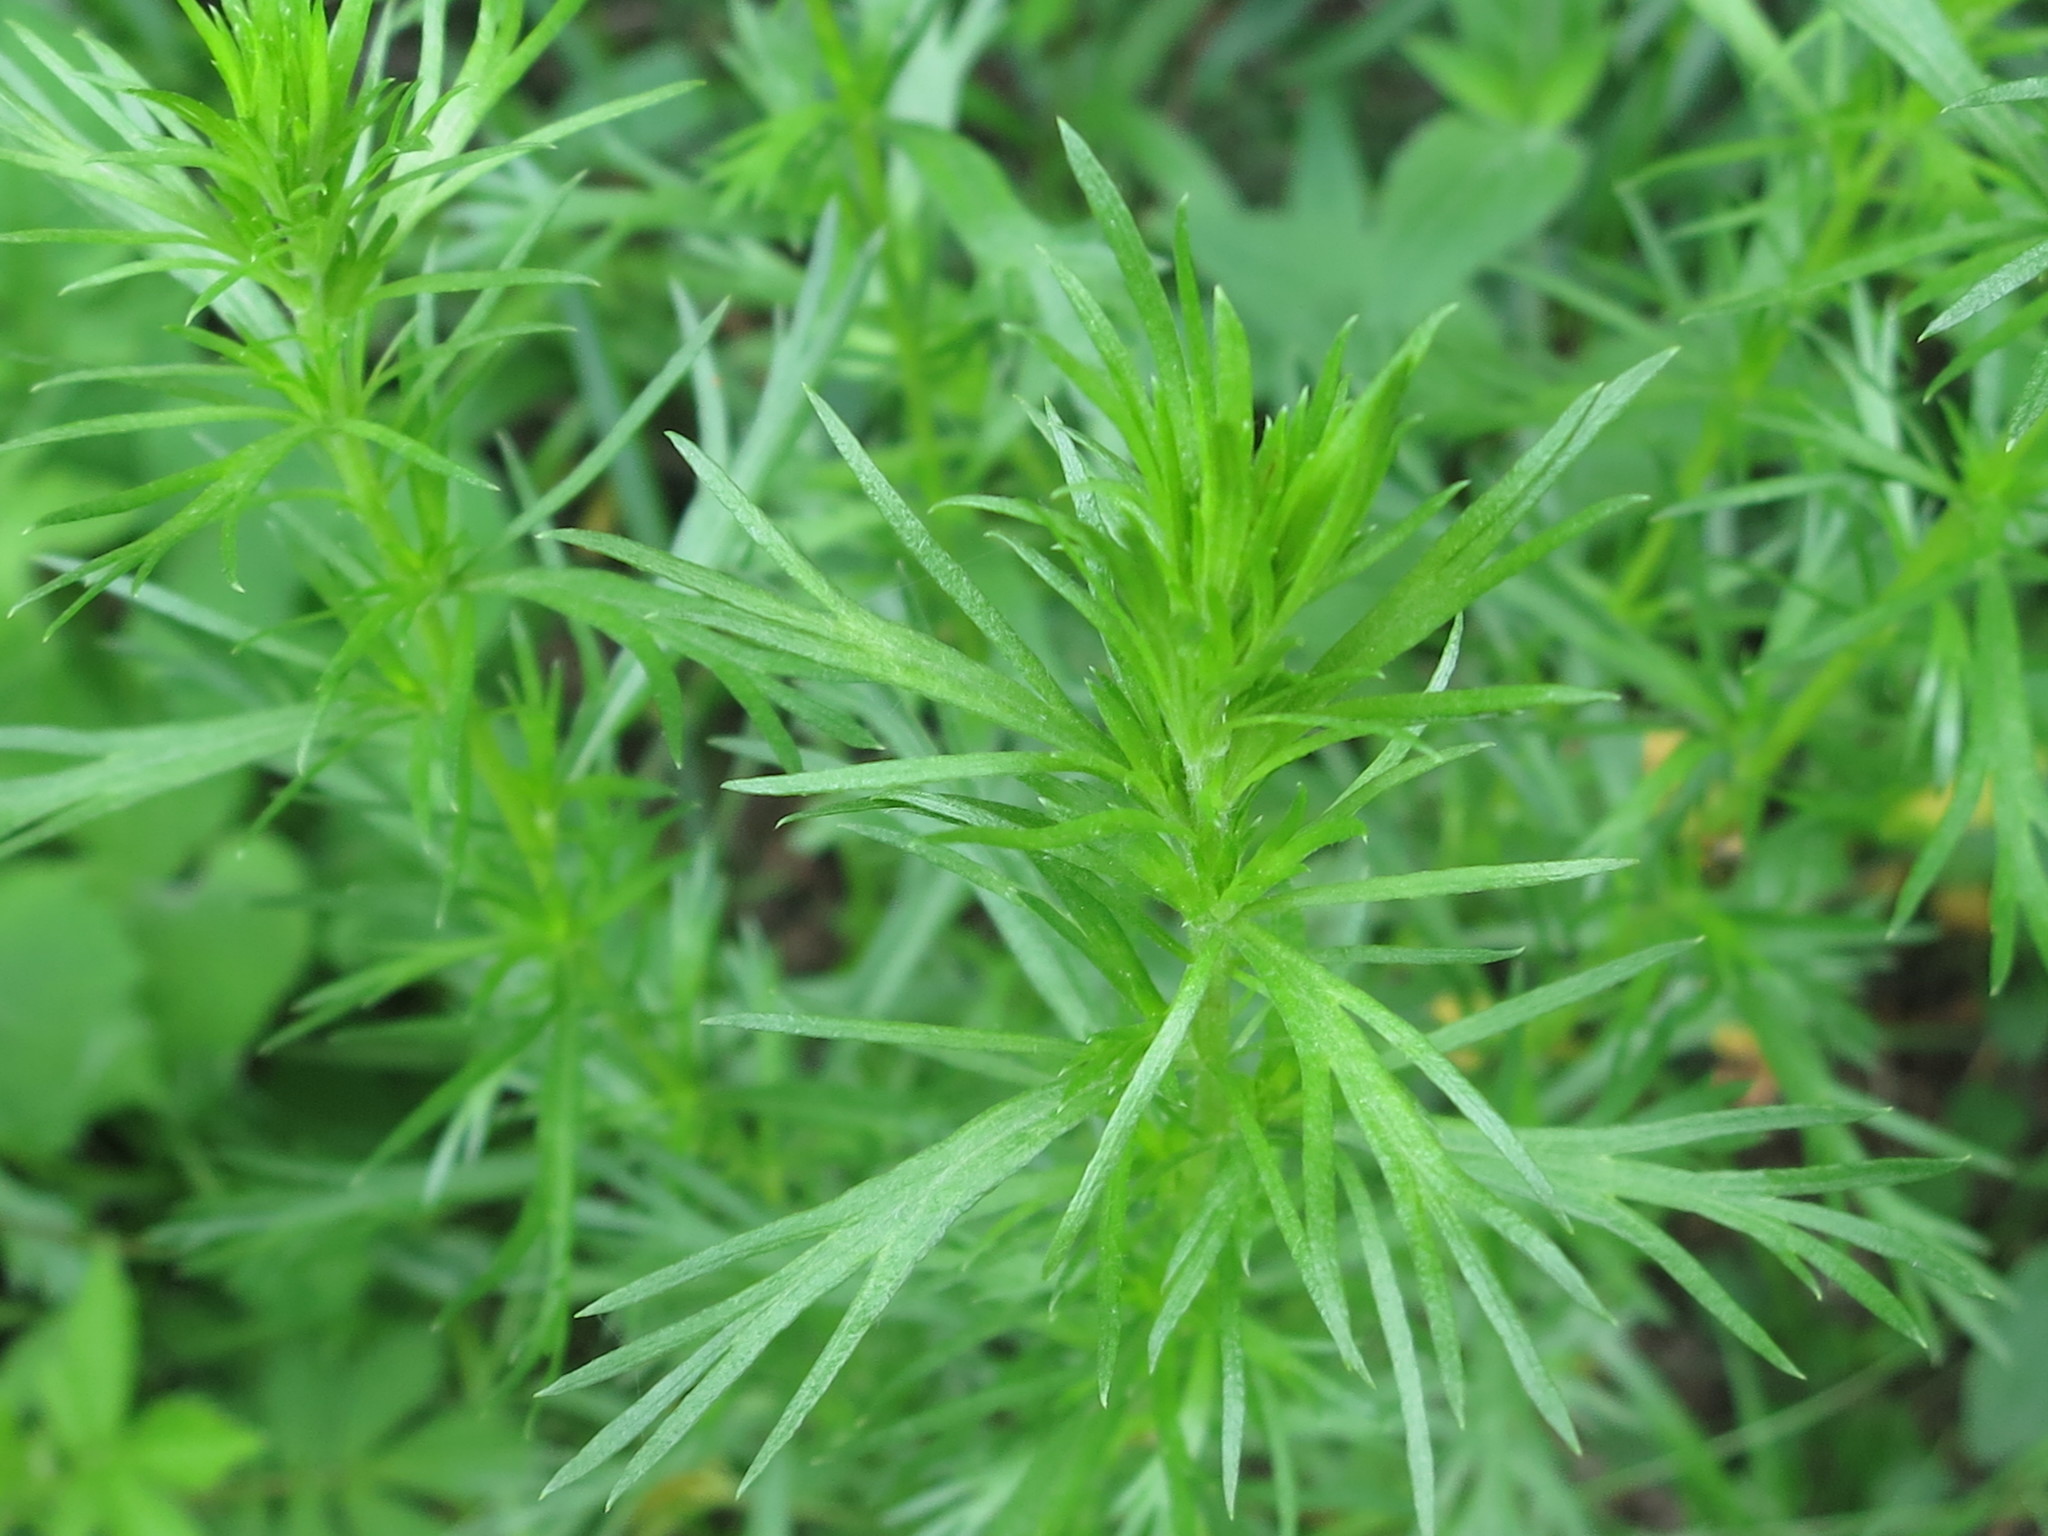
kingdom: Plantae
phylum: Tracheophyta
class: Magnoliopsida
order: Asterales
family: Asteraceae
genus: Artemisia
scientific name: Artemisia manshurica
